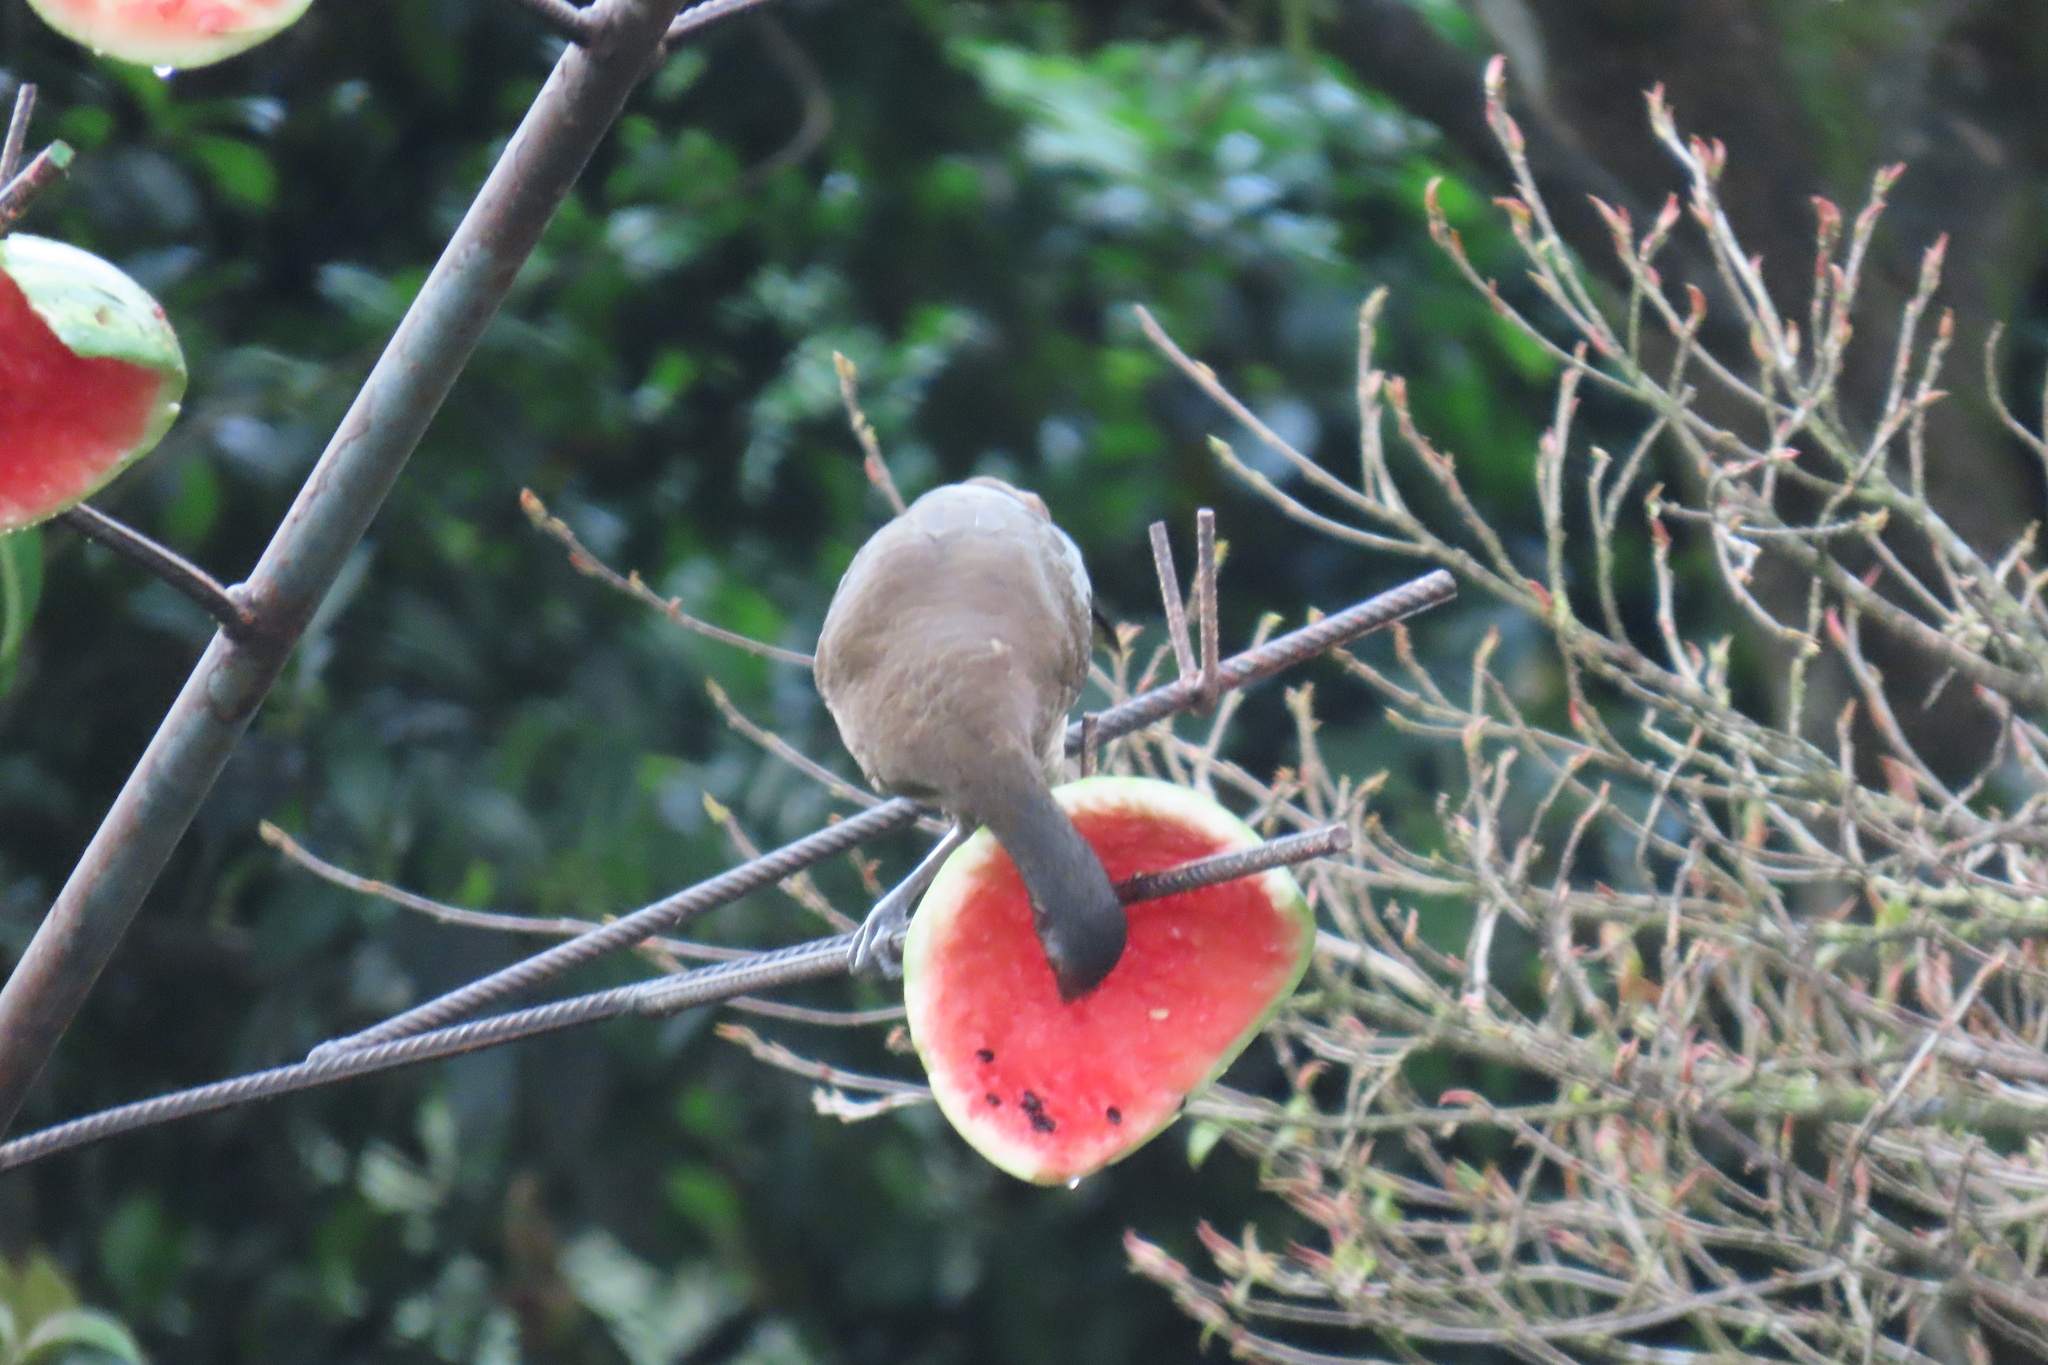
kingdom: Animalia
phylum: Chordata
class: Aves
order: Galliformes
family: Cracidae
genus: Ortalis
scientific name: Ortalis cinereiceps
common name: Grey-headed chachalaca
